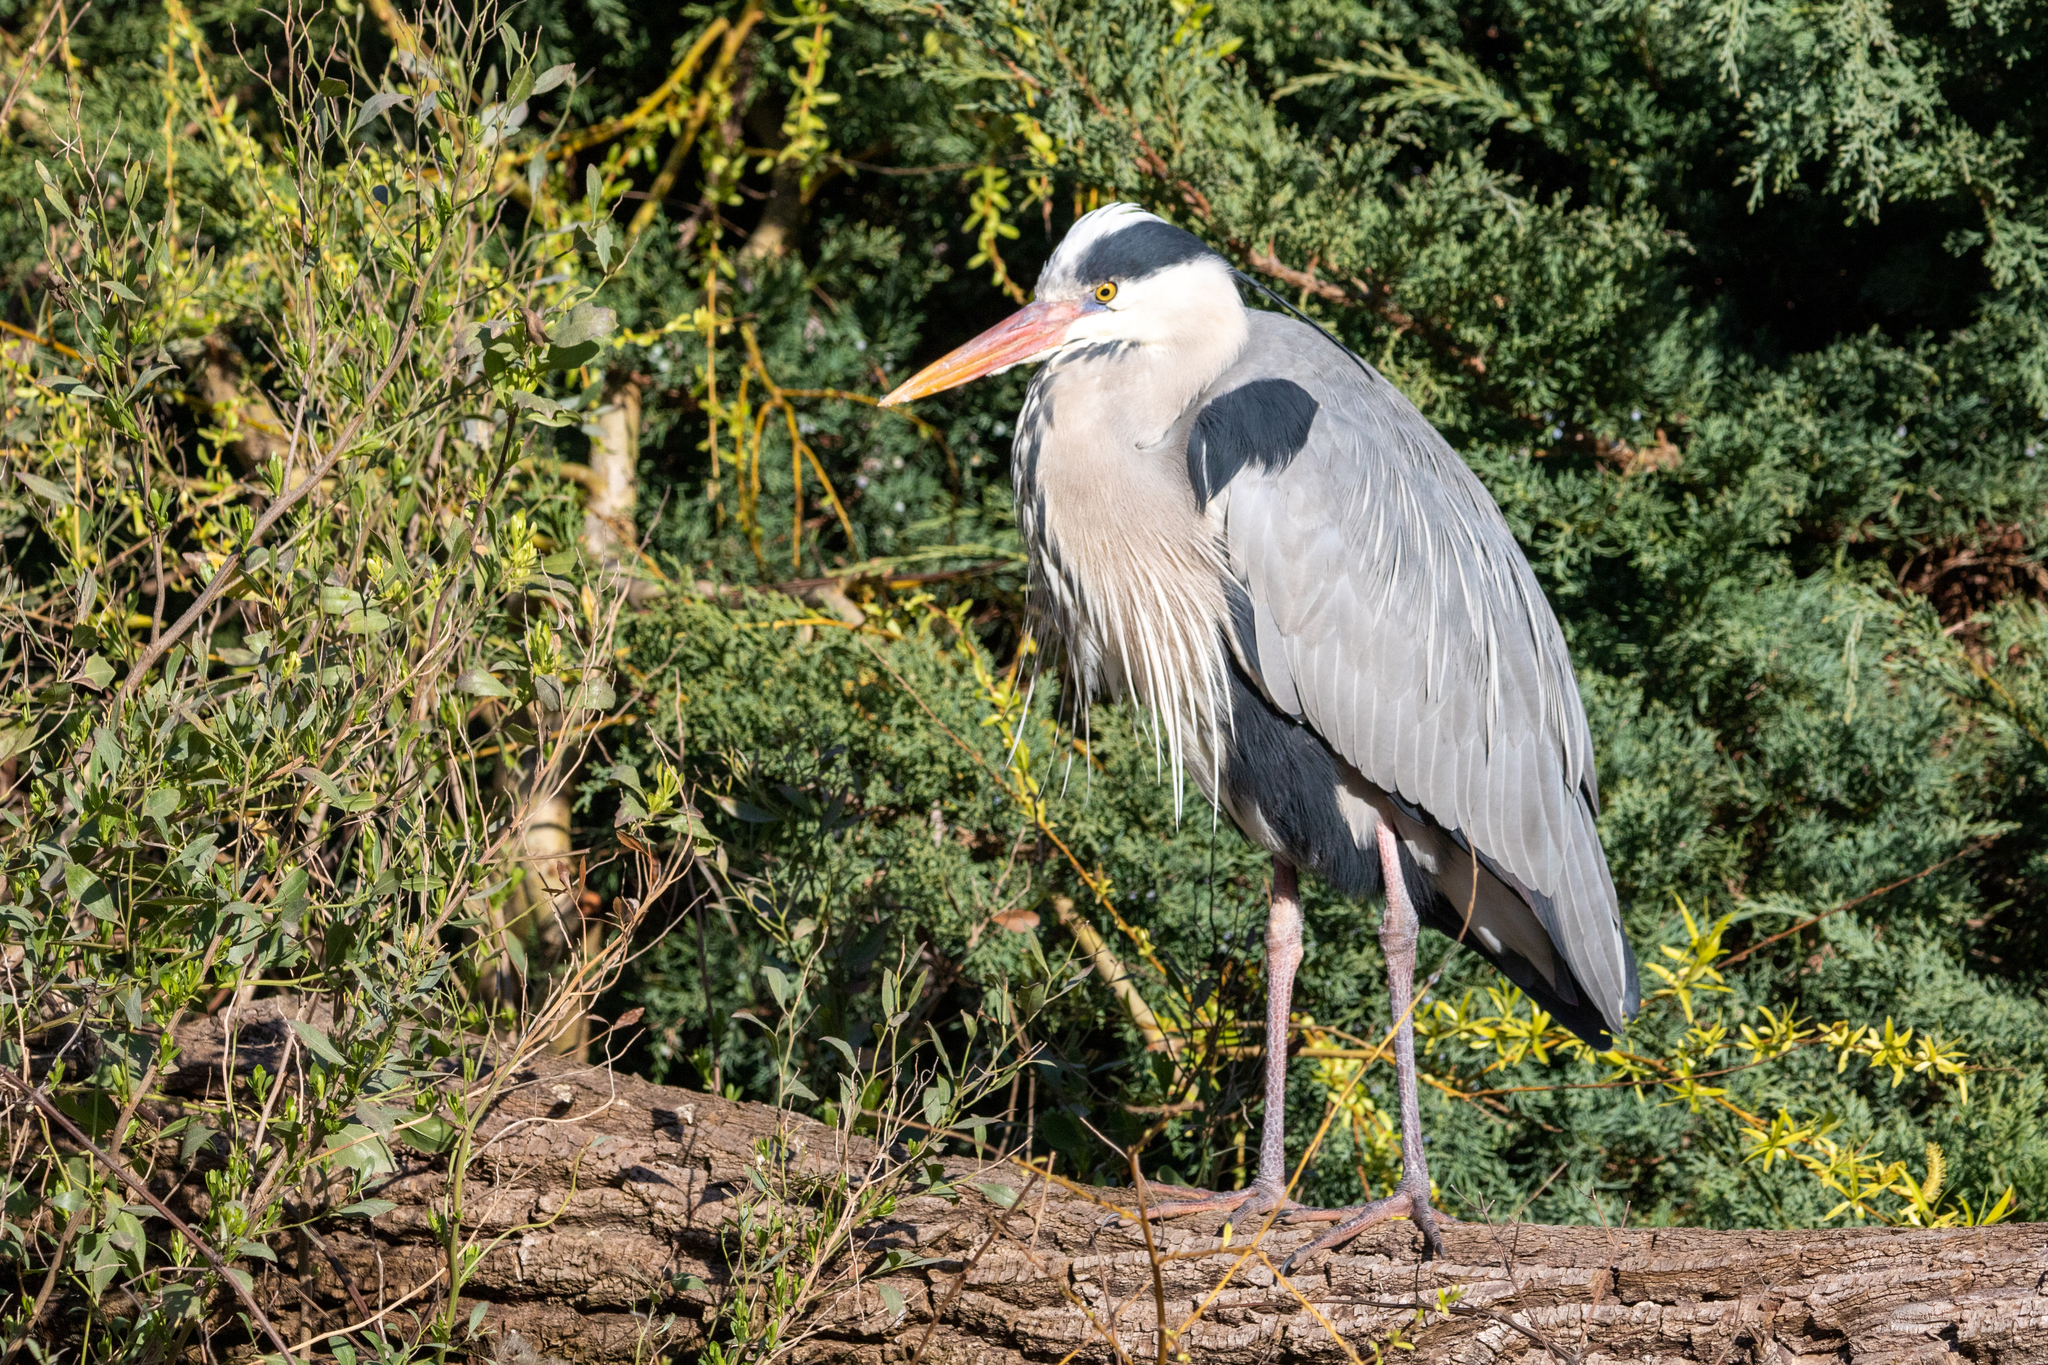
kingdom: Animalia
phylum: Chordata
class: Aves
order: Pelecaniformes
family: Ardeidae
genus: Ardea
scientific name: Ardea cinerea
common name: Grey heron
